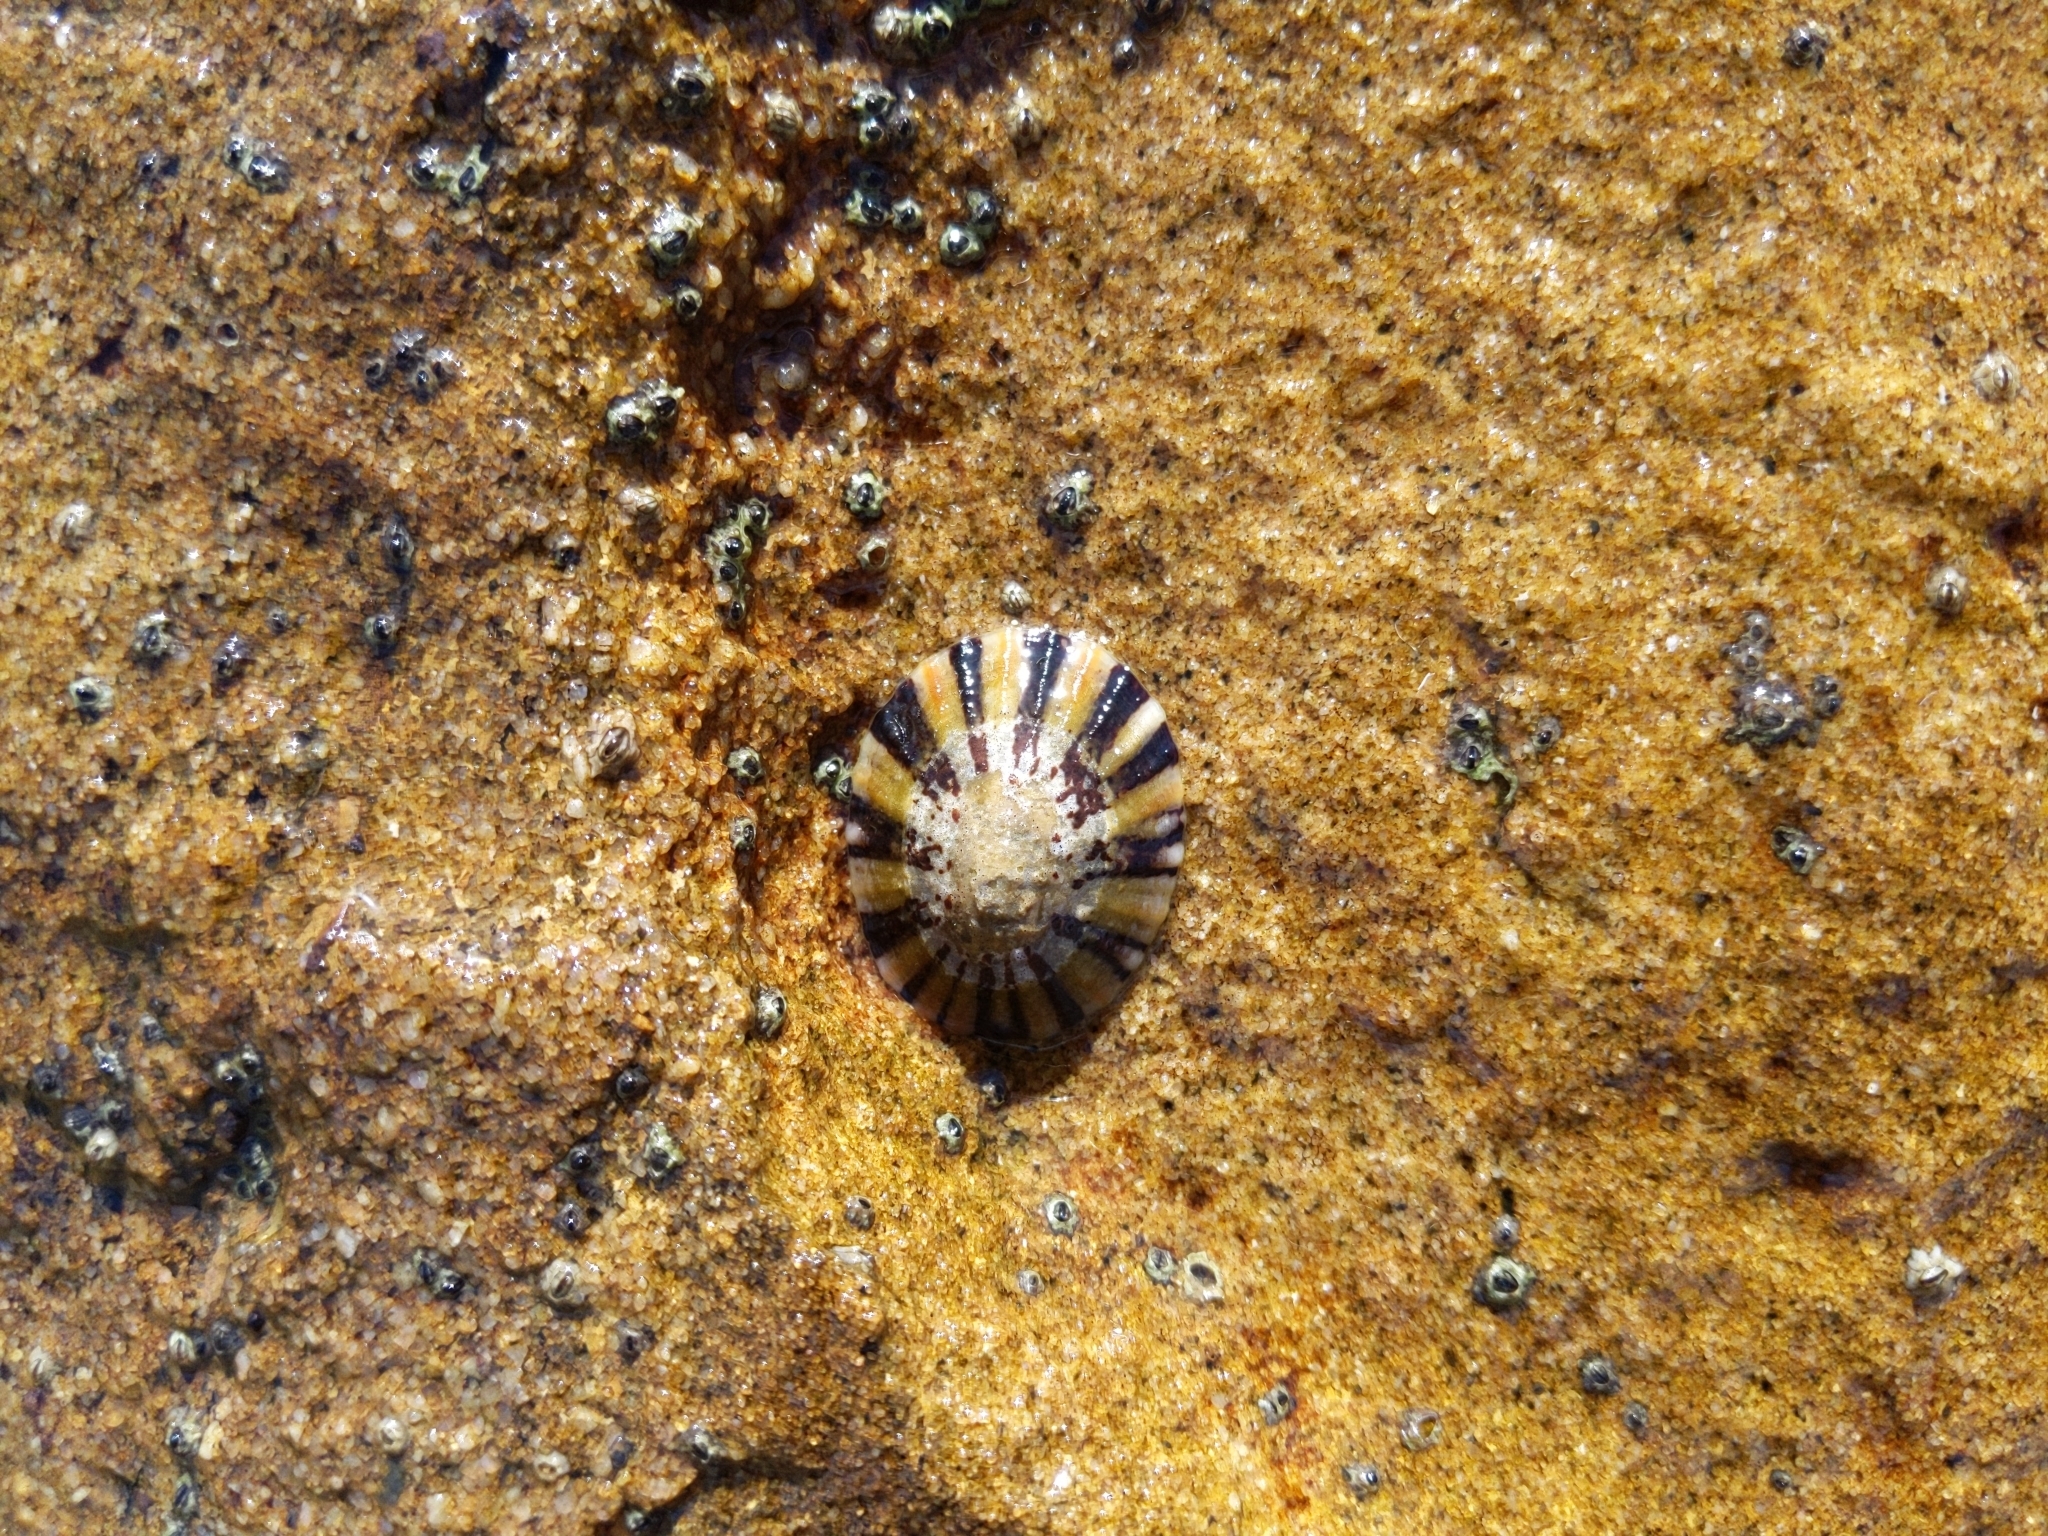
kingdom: Animalia
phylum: Mollusca
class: Gastropoda
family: Nacellidae
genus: Cellana
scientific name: Cellana tramoserica
